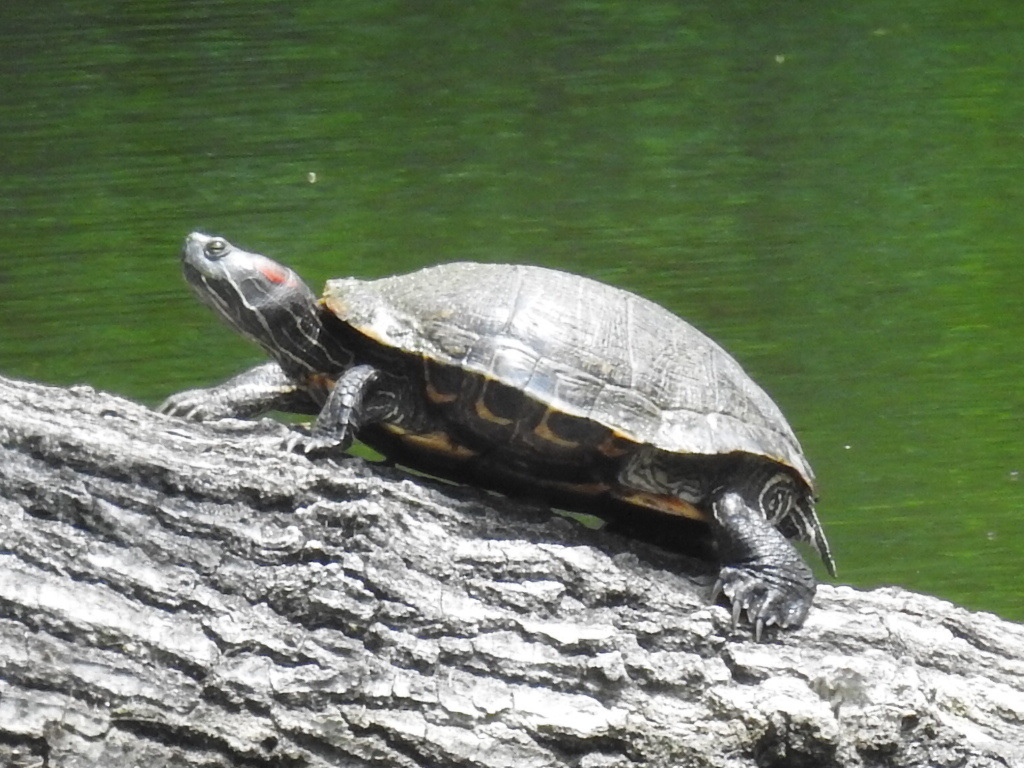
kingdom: Animalia
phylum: Chordata
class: Testudines
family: Emydidae
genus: Trachemys
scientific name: Trachemys scripta
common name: Slider
